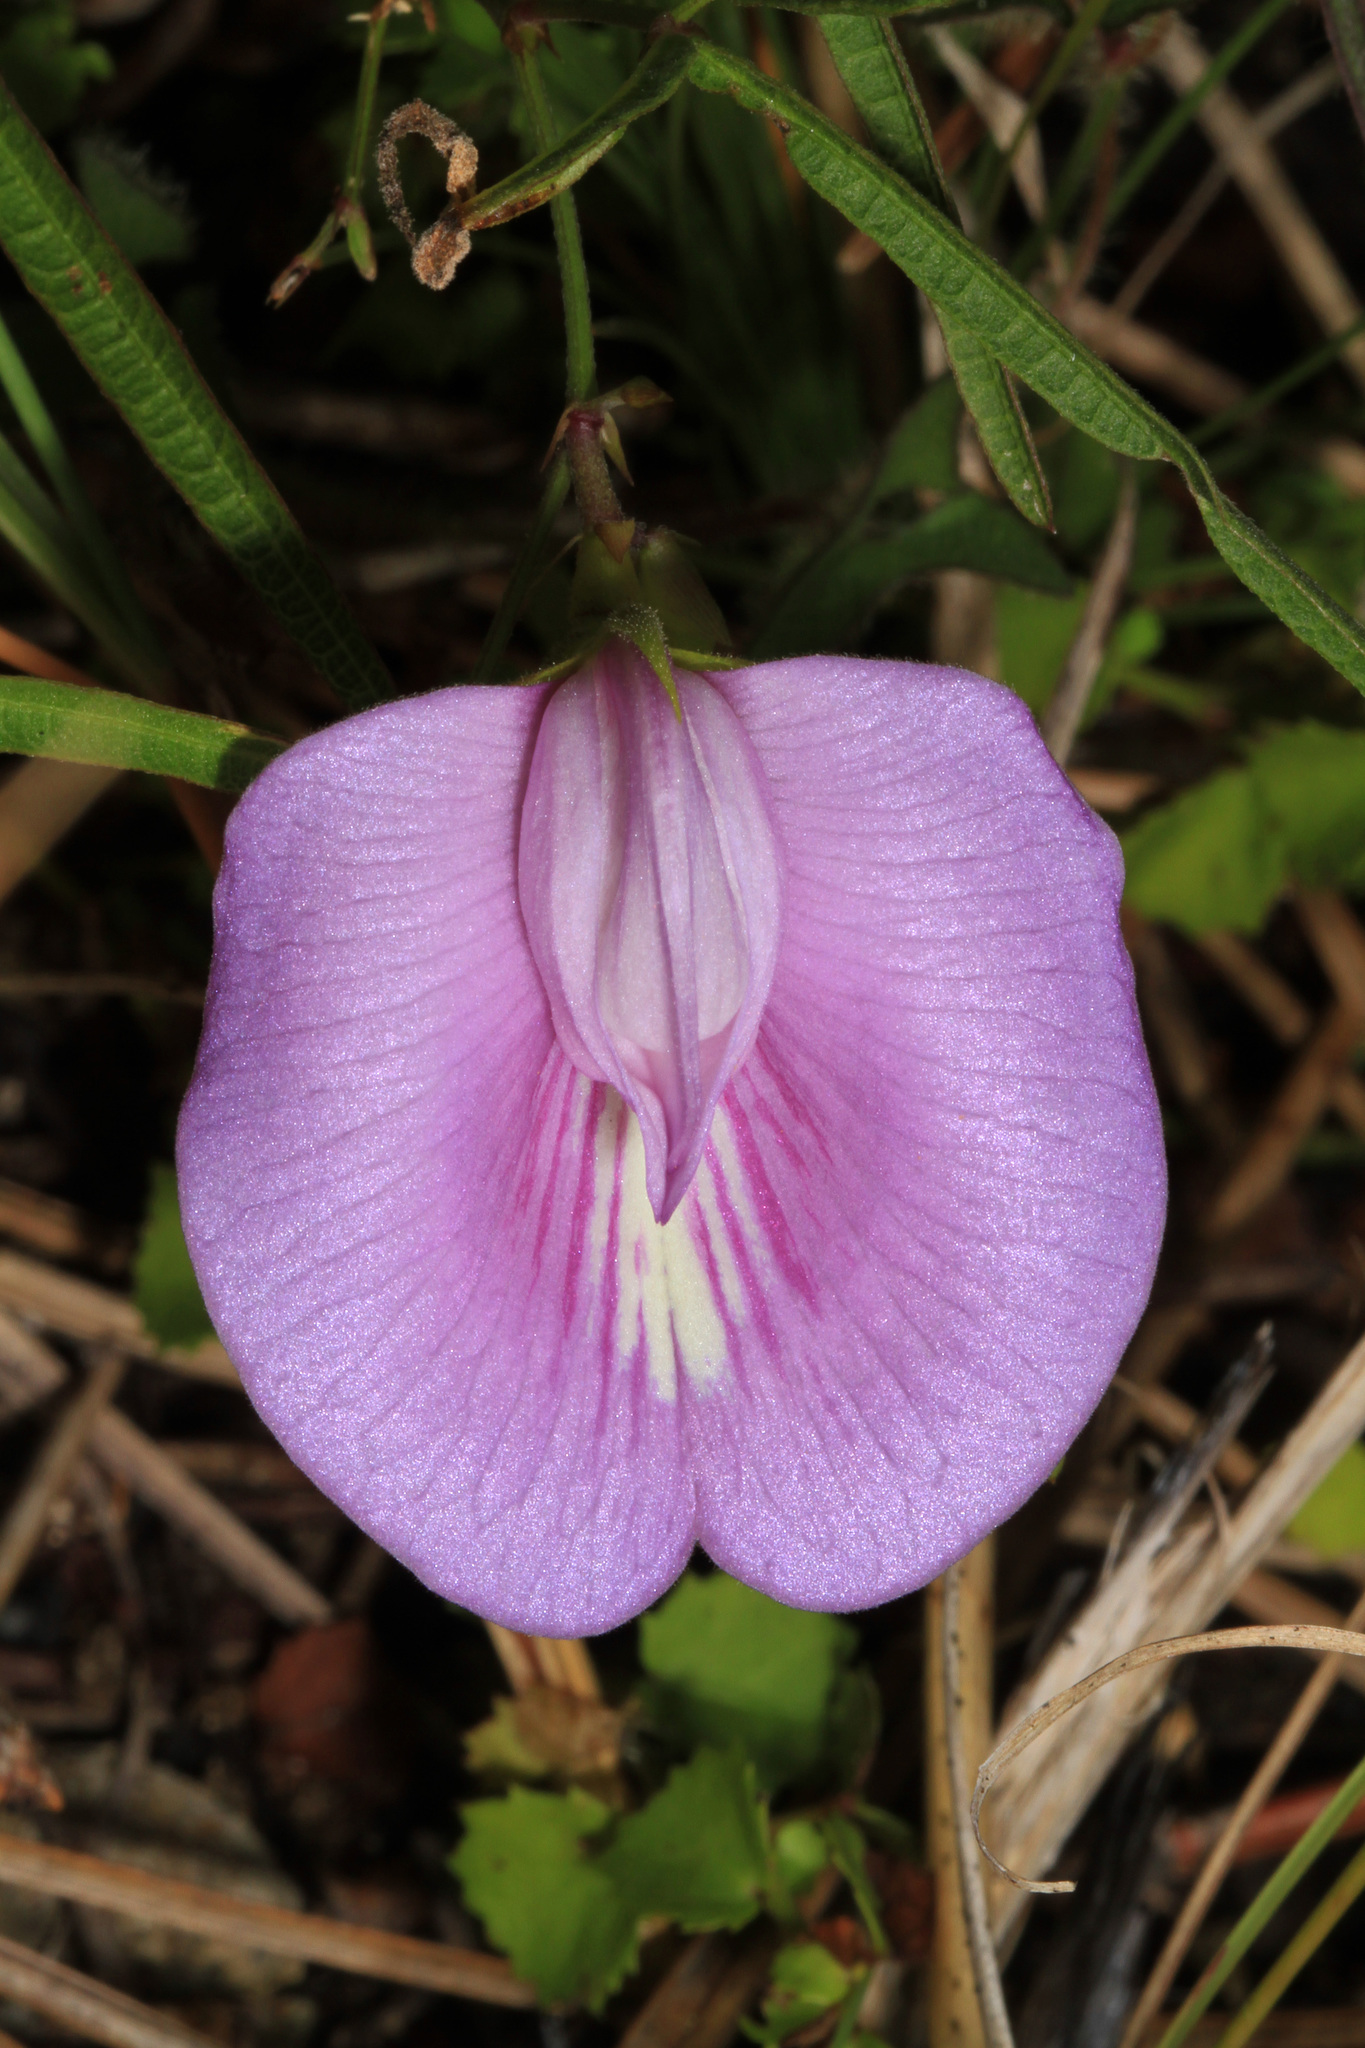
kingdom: Plantae
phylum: Tracheophyta
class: Magnoliopsida
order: Fabales
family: Fabaceae
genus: Centrosema
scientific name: Centrosema virginianum
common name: Butterfly-pea
